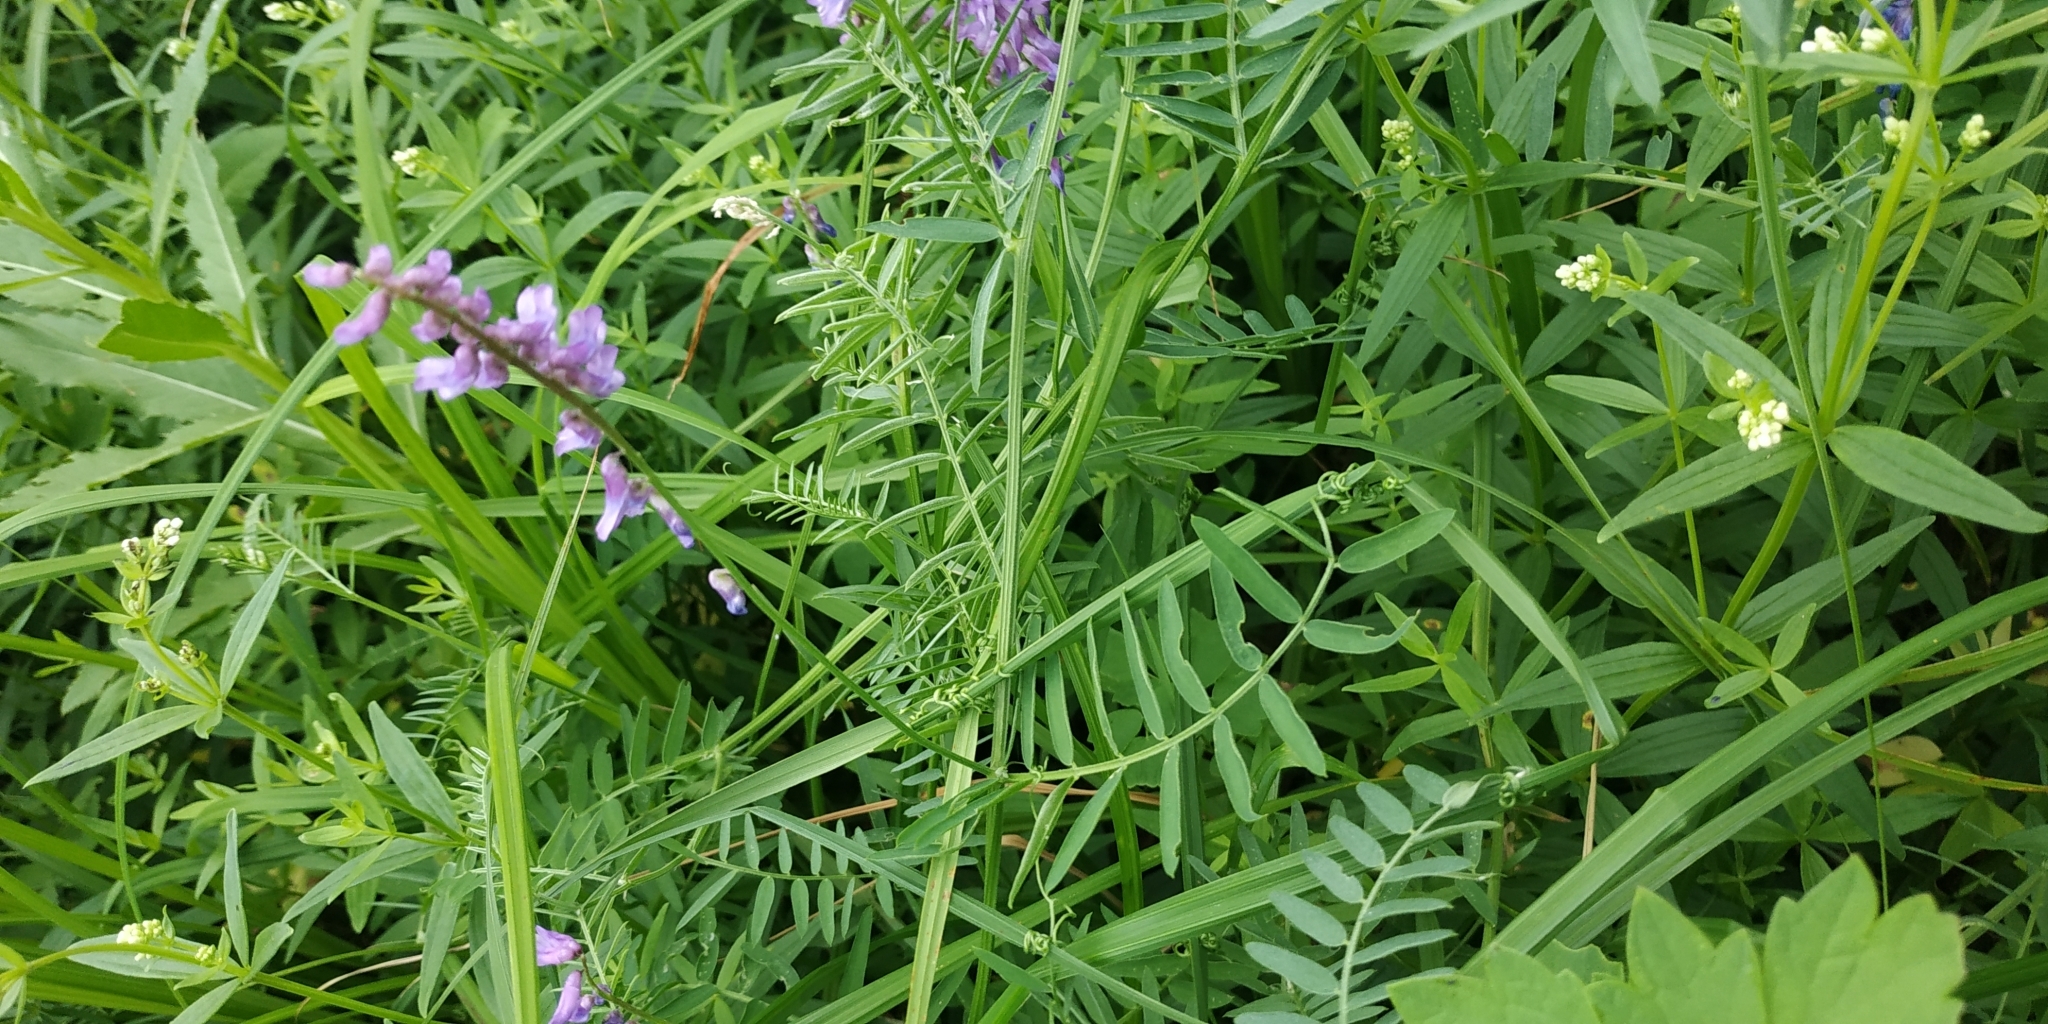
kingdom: Plantae
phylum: Tracheophyta
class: Magnoliopsida
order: Fabales
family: Fabaceae
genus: Vicia
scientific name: Vicia tenuifolia
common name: Fine-leaved vetch
